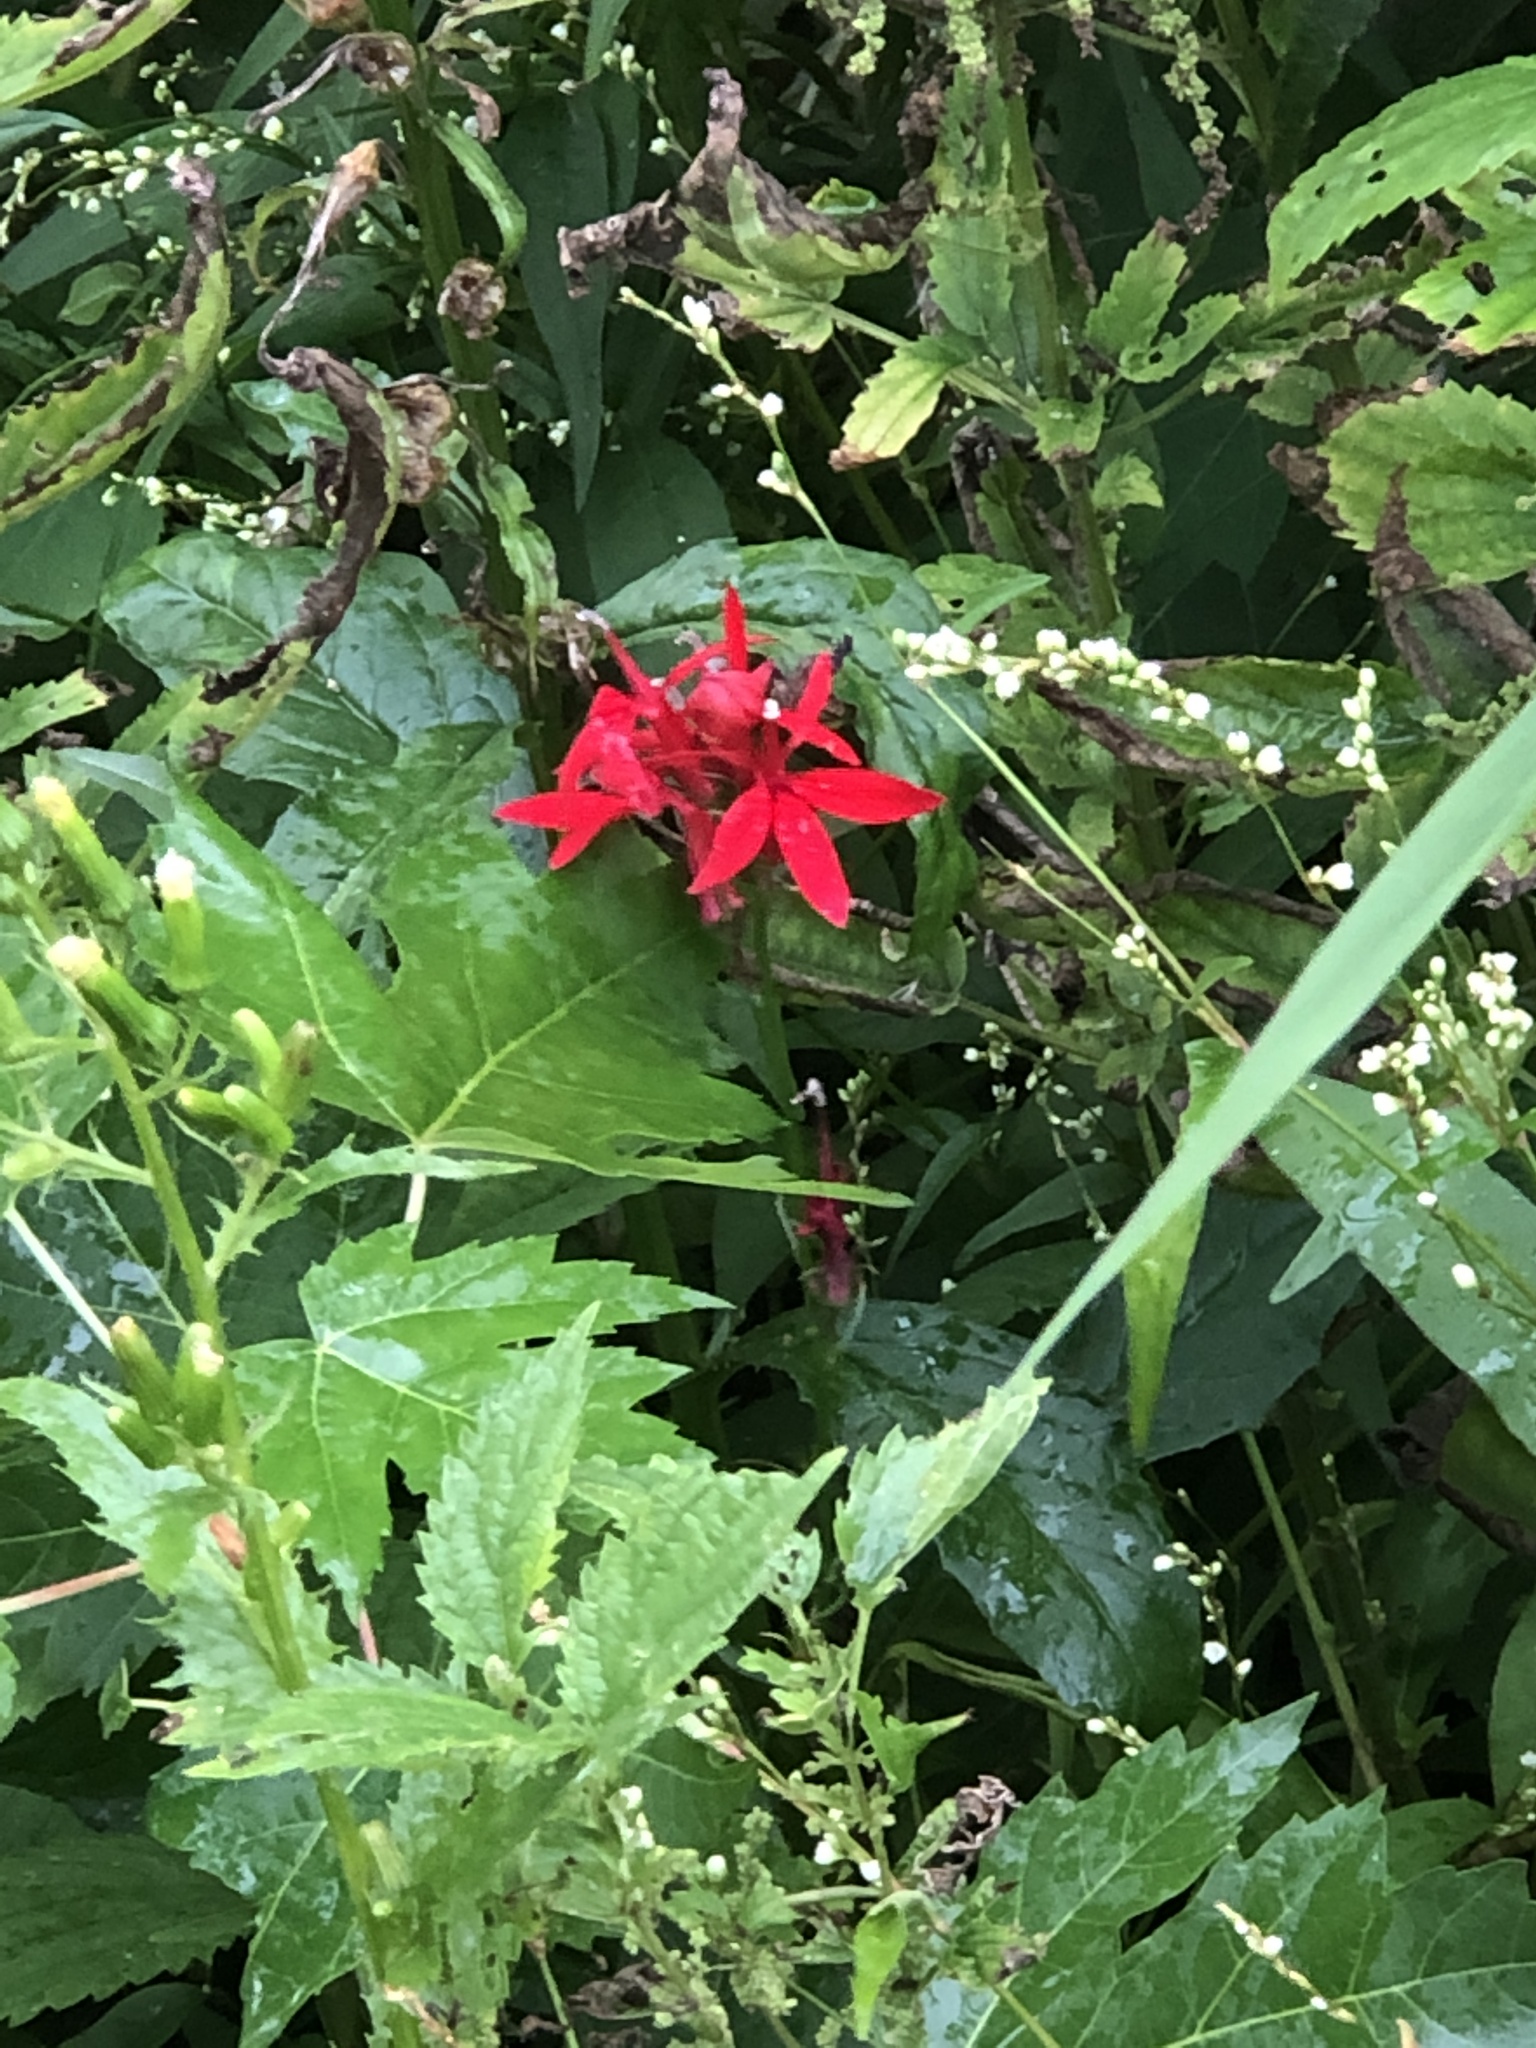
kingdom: Plantae
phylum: Tracheophyta
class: Magnoliopsida
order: Asterales
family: Campanulaceae
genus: Lobelia
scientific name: Lobelia cardinalis
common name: Cardinal flower
